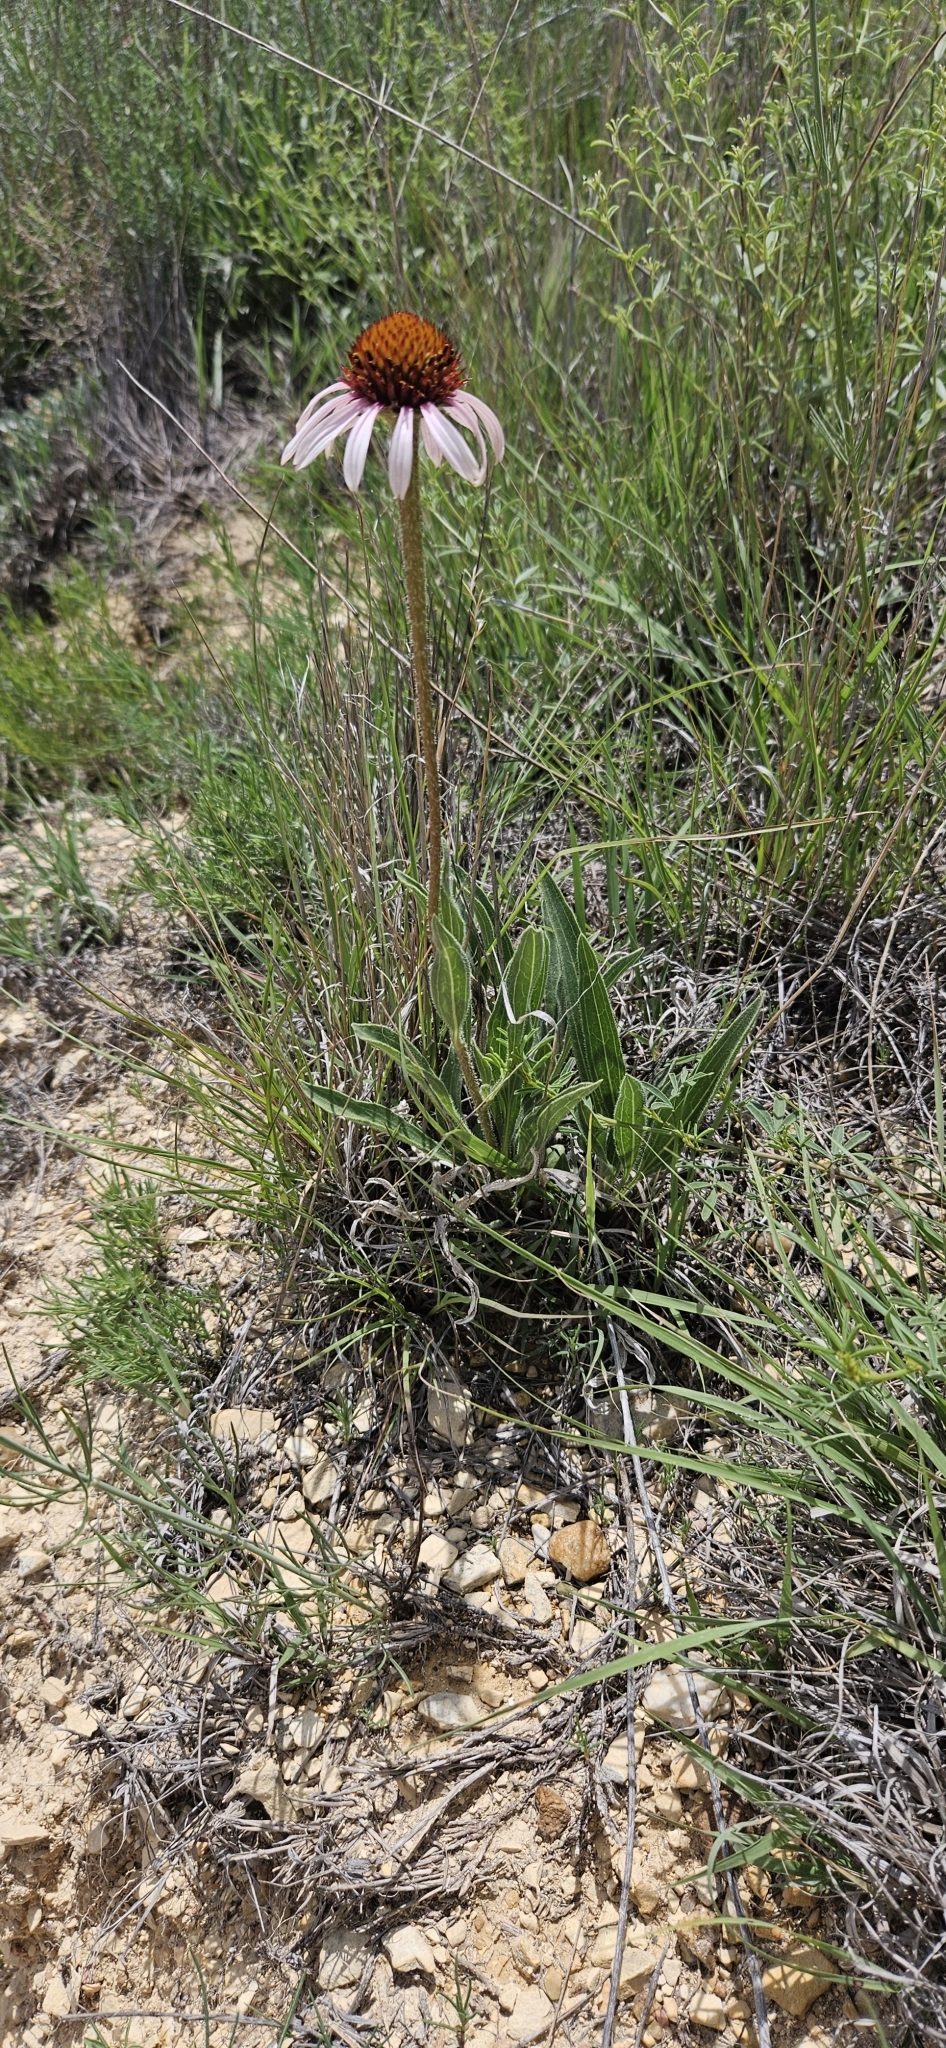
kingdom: Plantae
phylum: Tracheophyta
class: Magnoliopsida
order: Asterales
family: Asteraceae
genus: Echinacea
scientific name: Echinacea angustifolia
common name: Black-sampson echinacea
